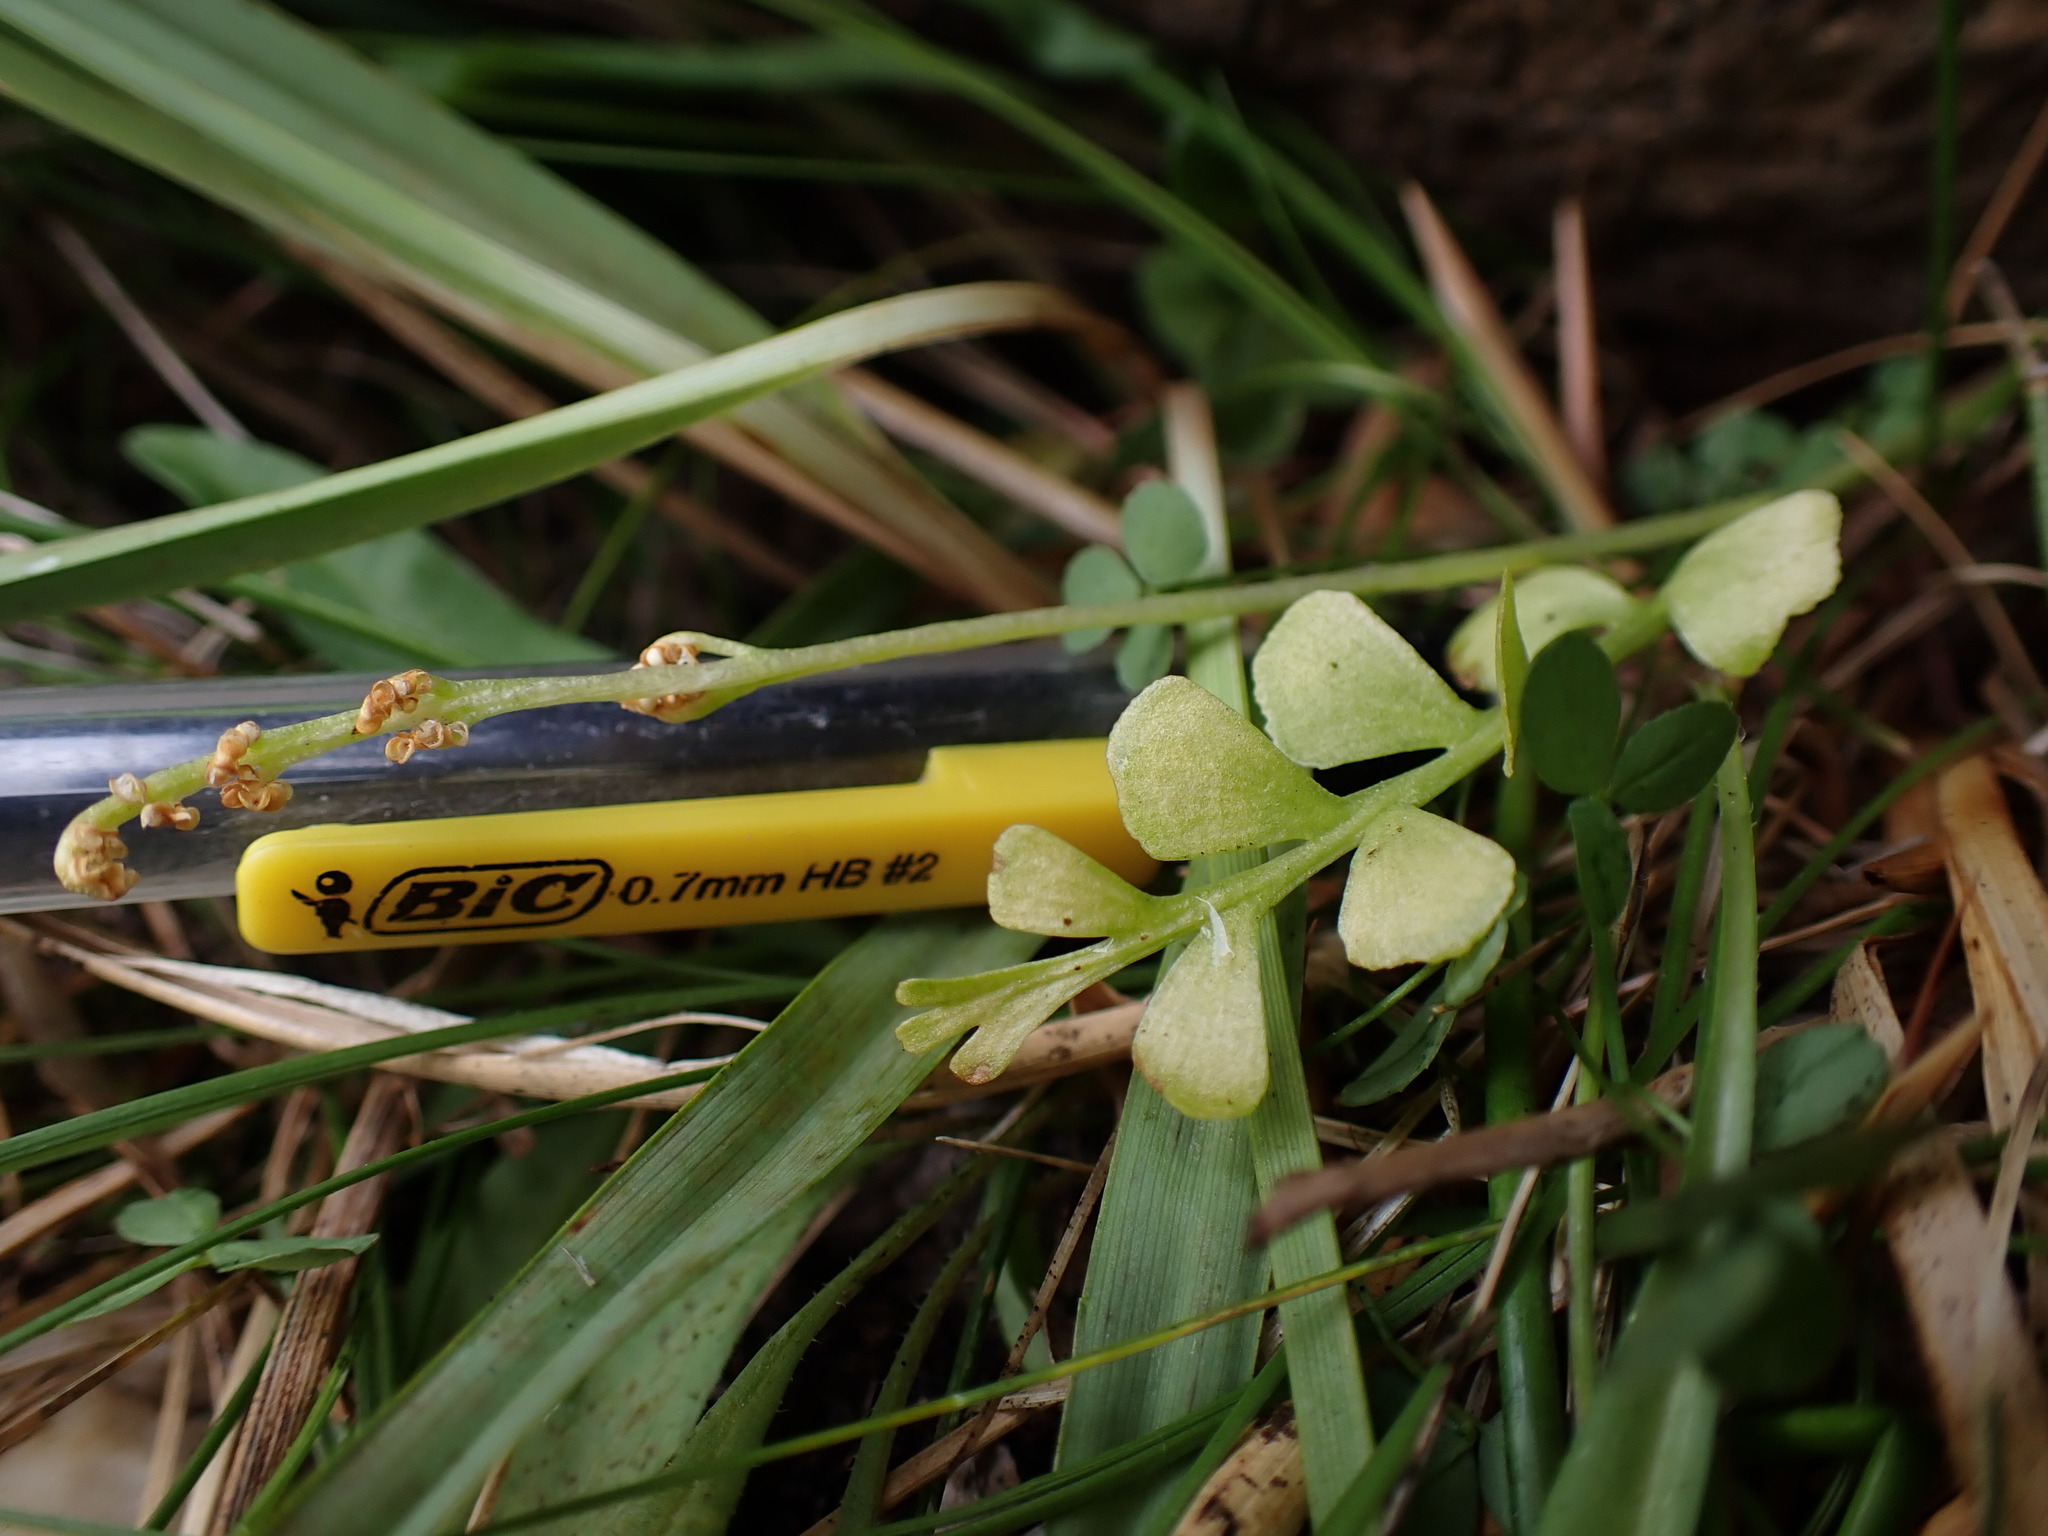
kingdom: Plantae
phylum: Tracheophyta
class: Polypodiopsida
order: Ophioglossales
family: Ophioglossaceae
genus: Botrychium
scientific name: Botrychium ascendens
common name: Ascending grapefern
